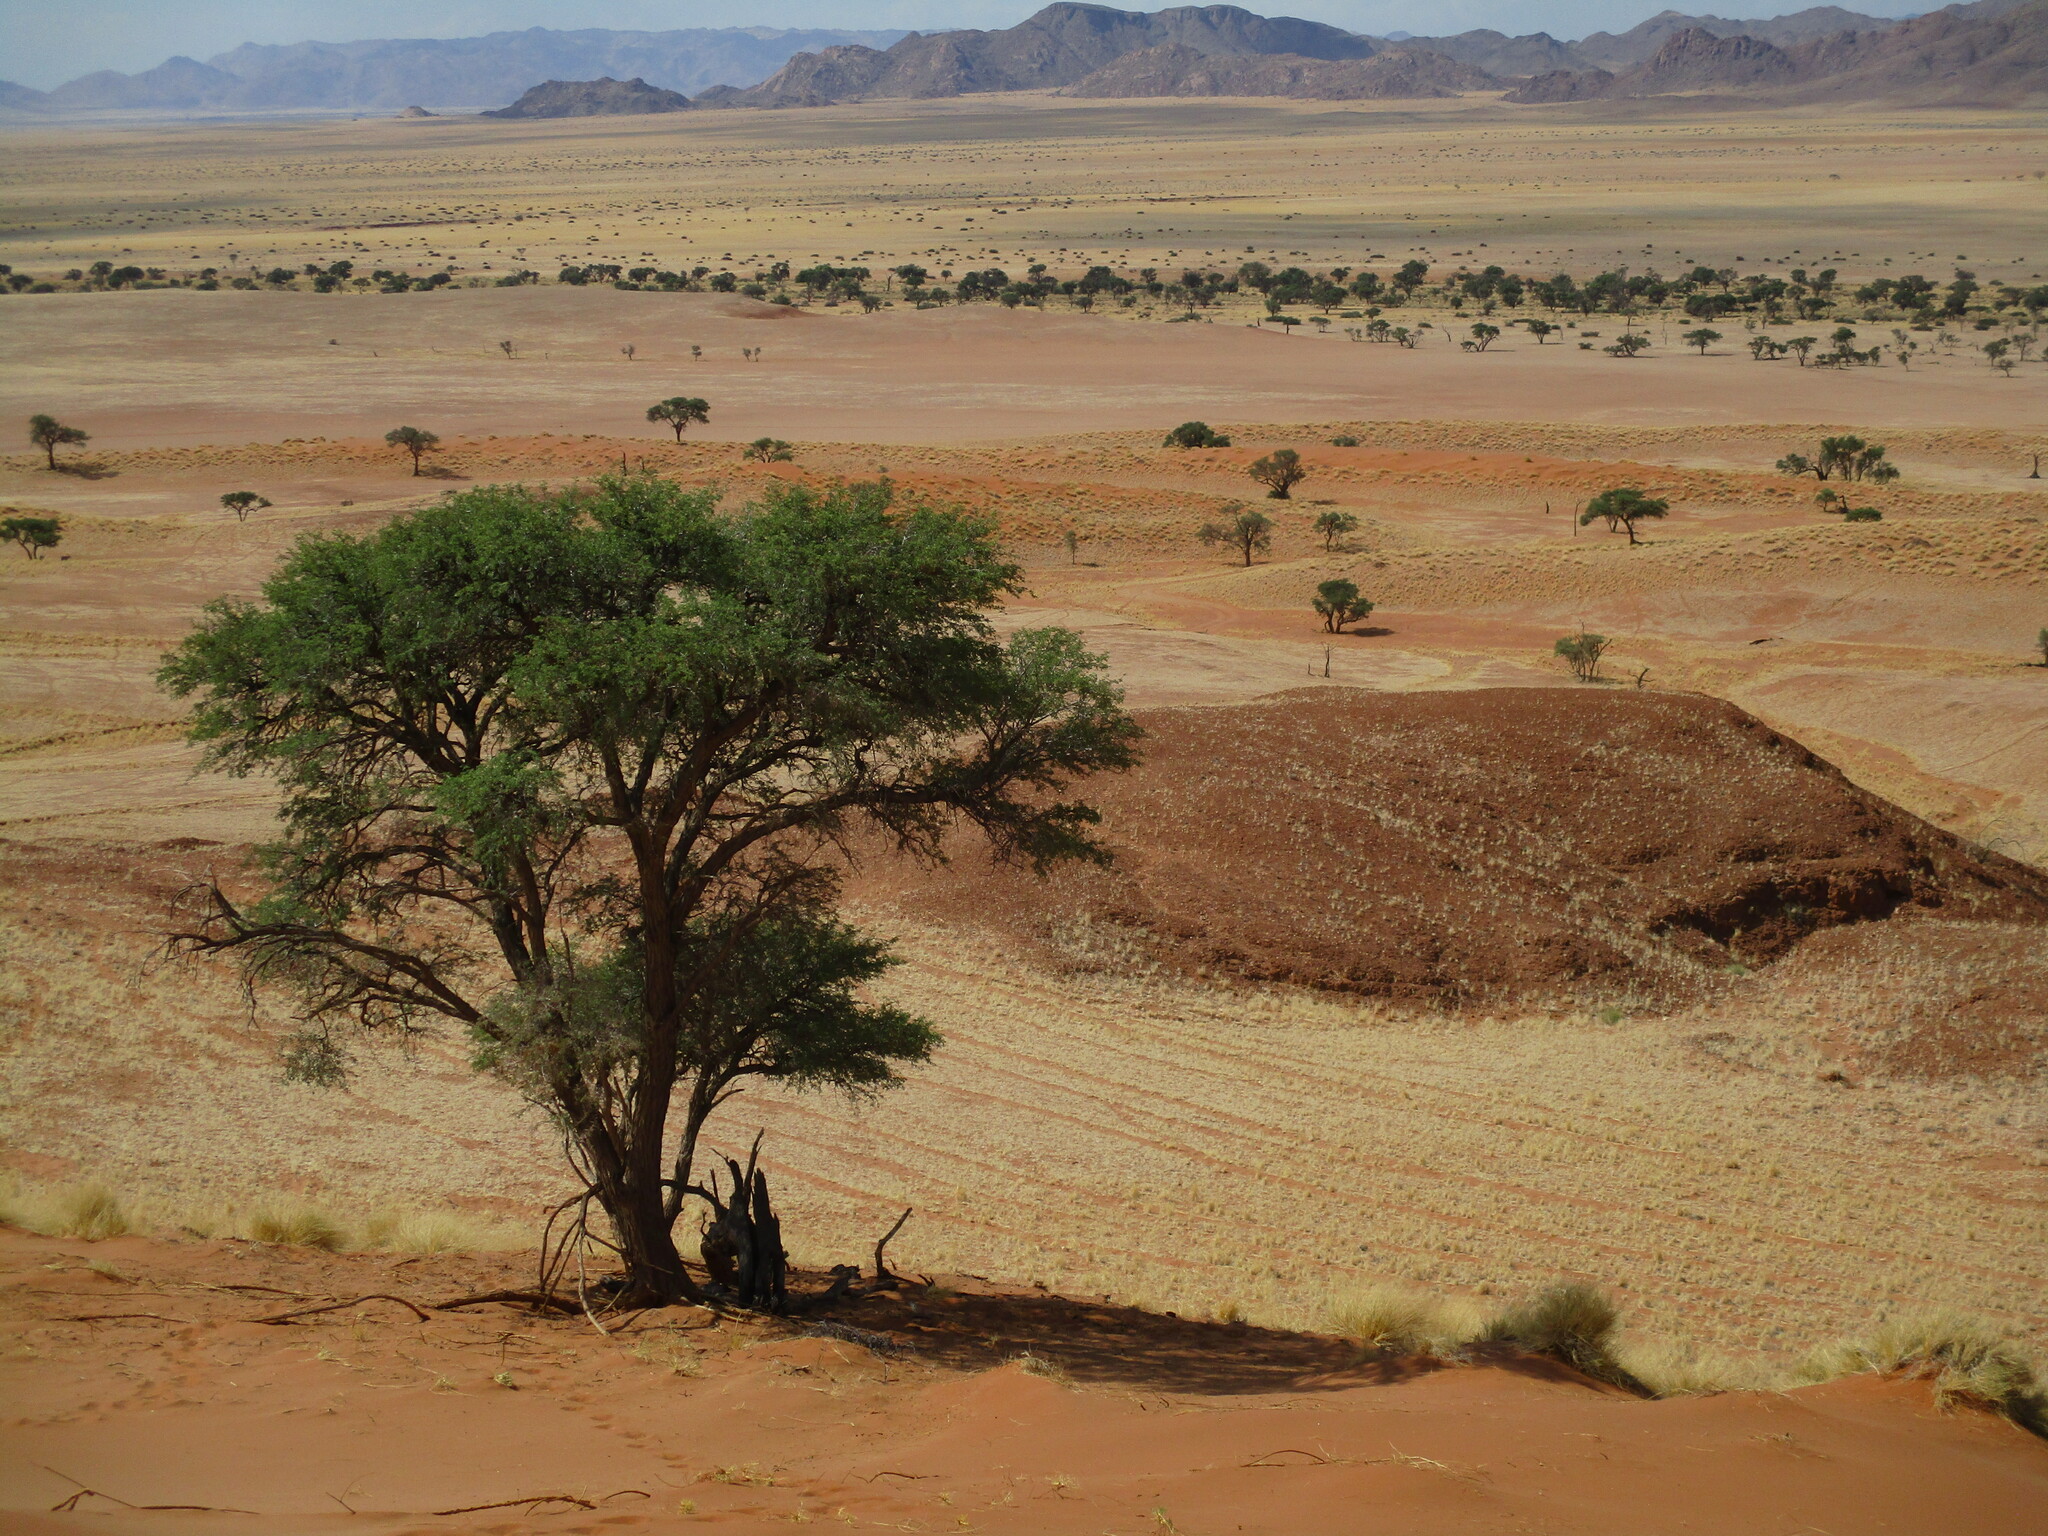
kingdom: Plantae
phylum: Tracheophyta
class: Magnoliopsida
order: Fabales
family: Fabaceae
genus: Vachellia
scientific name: Vachellia erioloba
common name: Camel thorn
